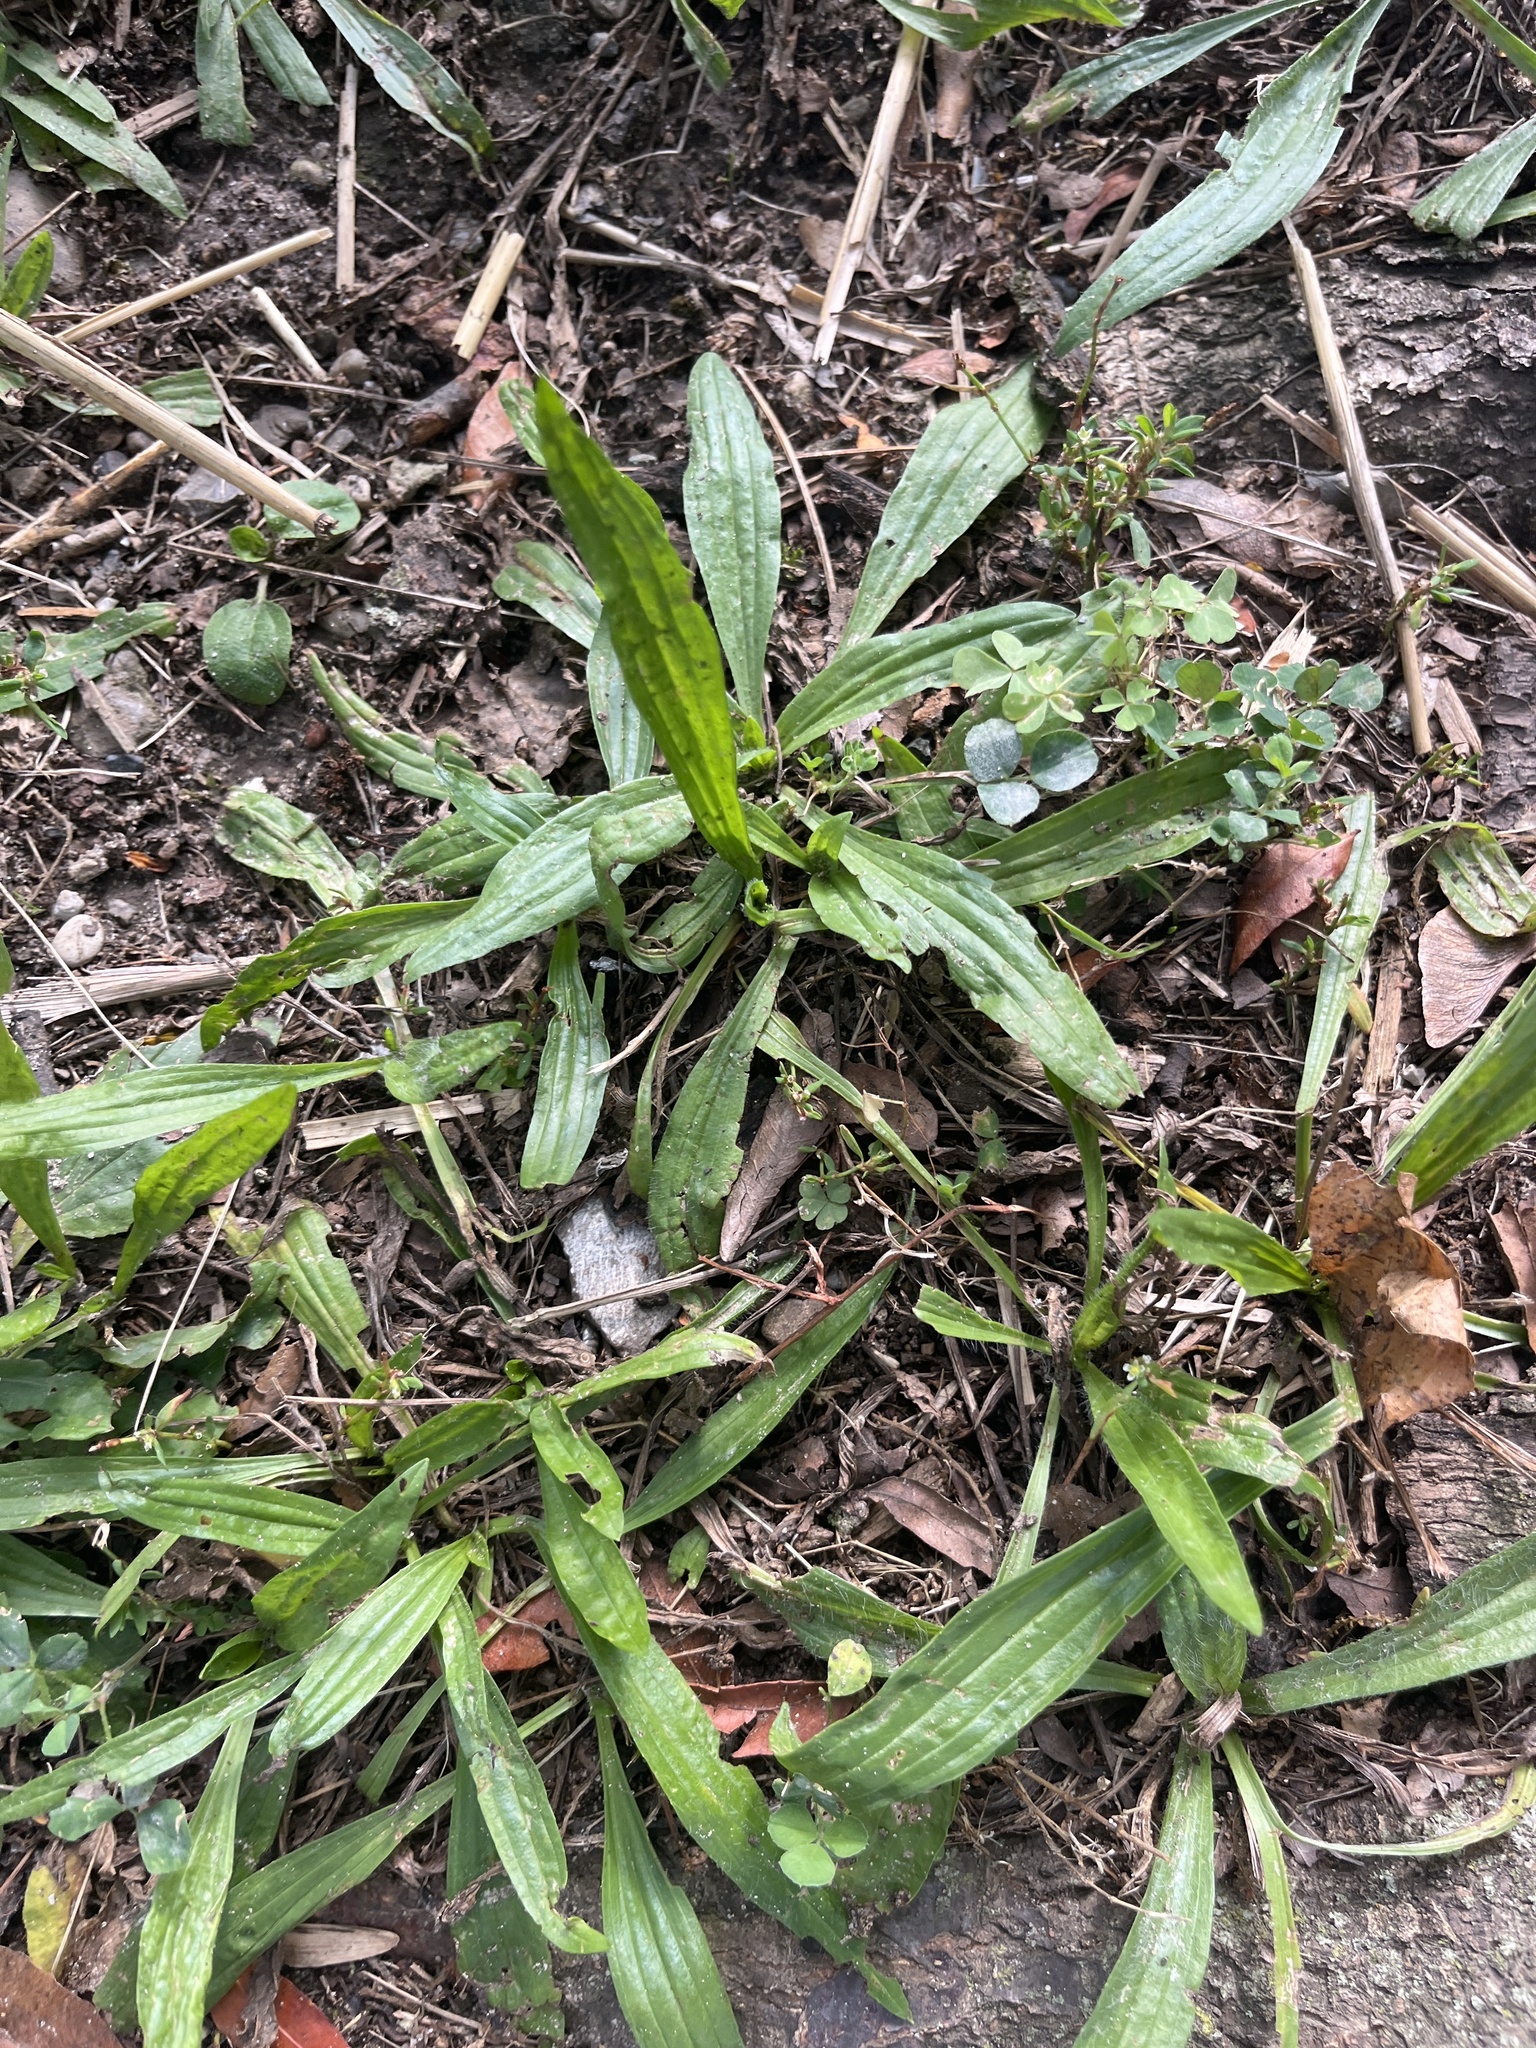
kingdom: Plantae
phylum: Tracheophyta
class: Magnoliopsida
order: Lamiales
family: Plantaginaceae
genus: Plantago
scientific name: Plantago lanceolata
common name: Ribwort plantain
